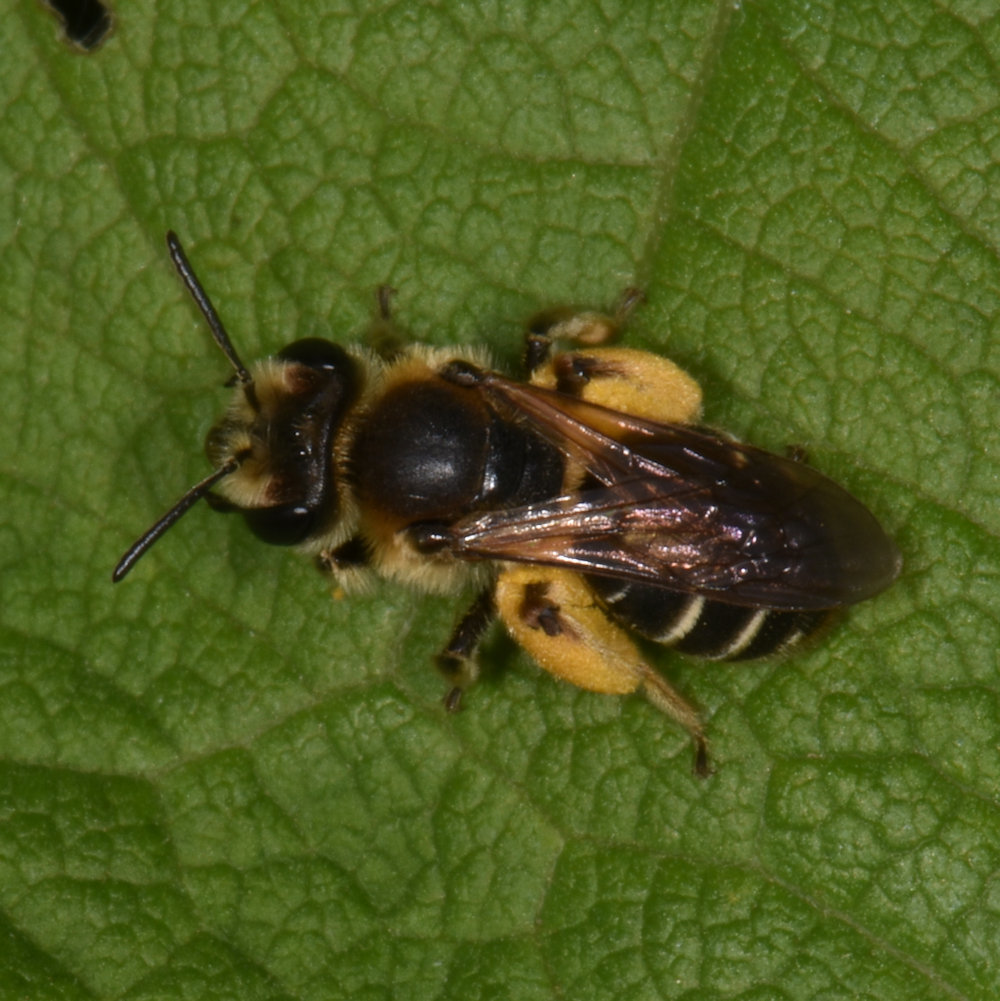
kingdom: Animalia
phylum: Arthropoda
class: Insecta
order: Hymenoptera
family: Andrenidae
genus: Andrena
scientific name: Andrena wilkella
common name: Wilke's mining bee
